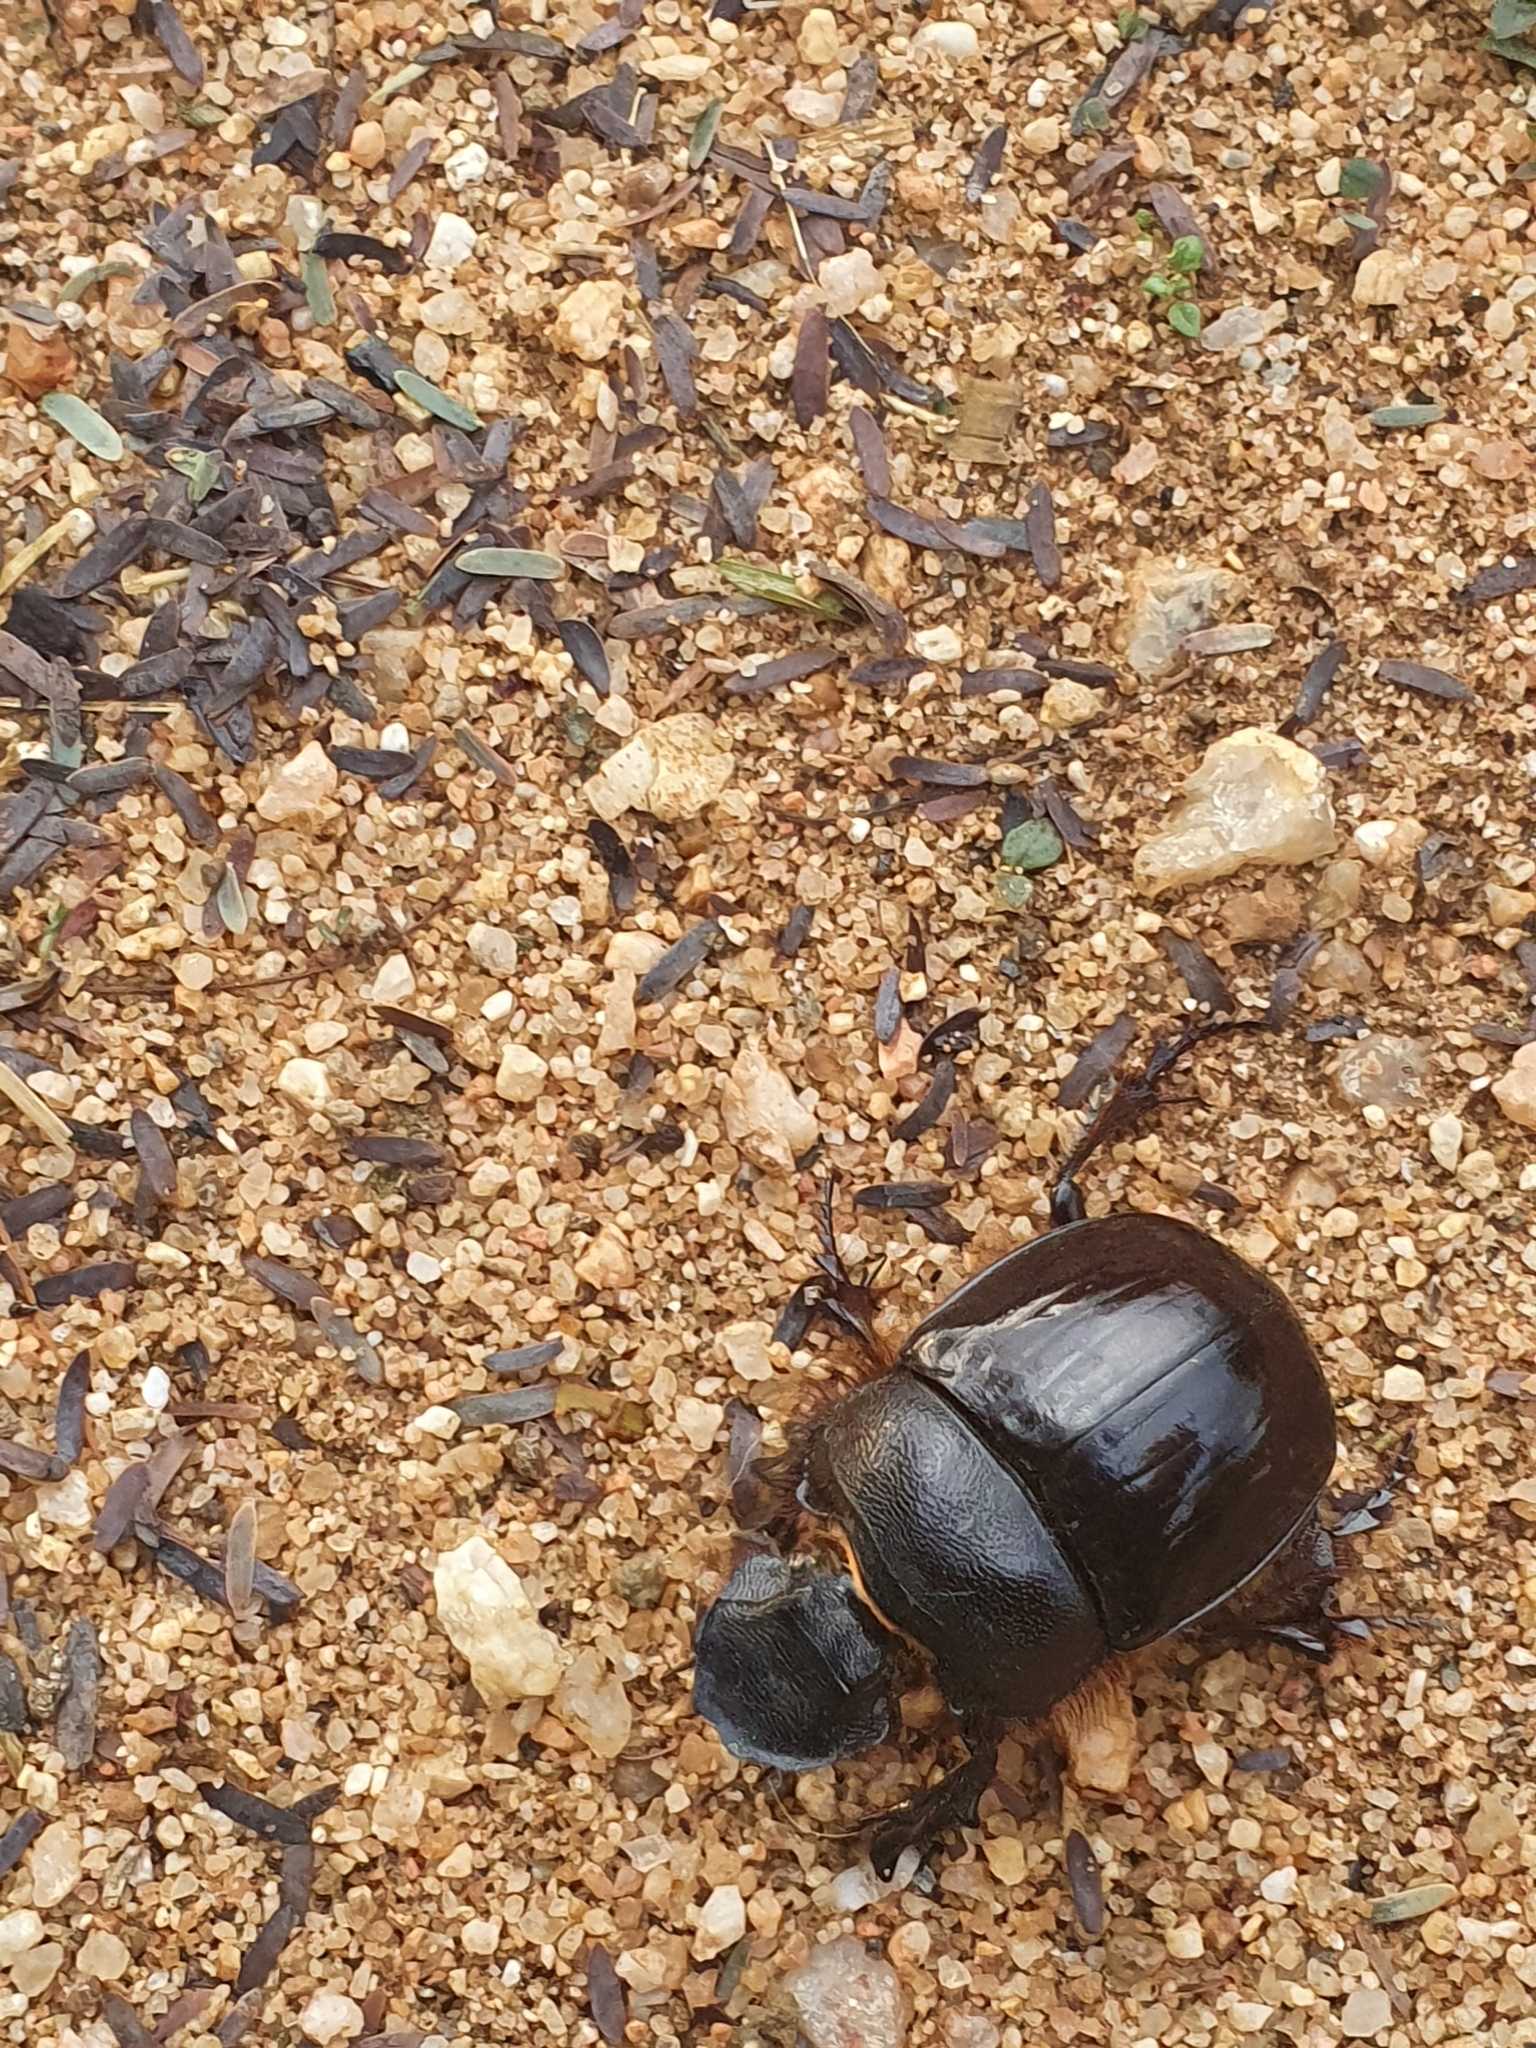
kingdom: Animalia
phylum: Arthropoda
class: Insecta
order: Coleoptera
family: Scarabaeidae
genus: Heliocopris
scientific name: Heliocopris andersoni
